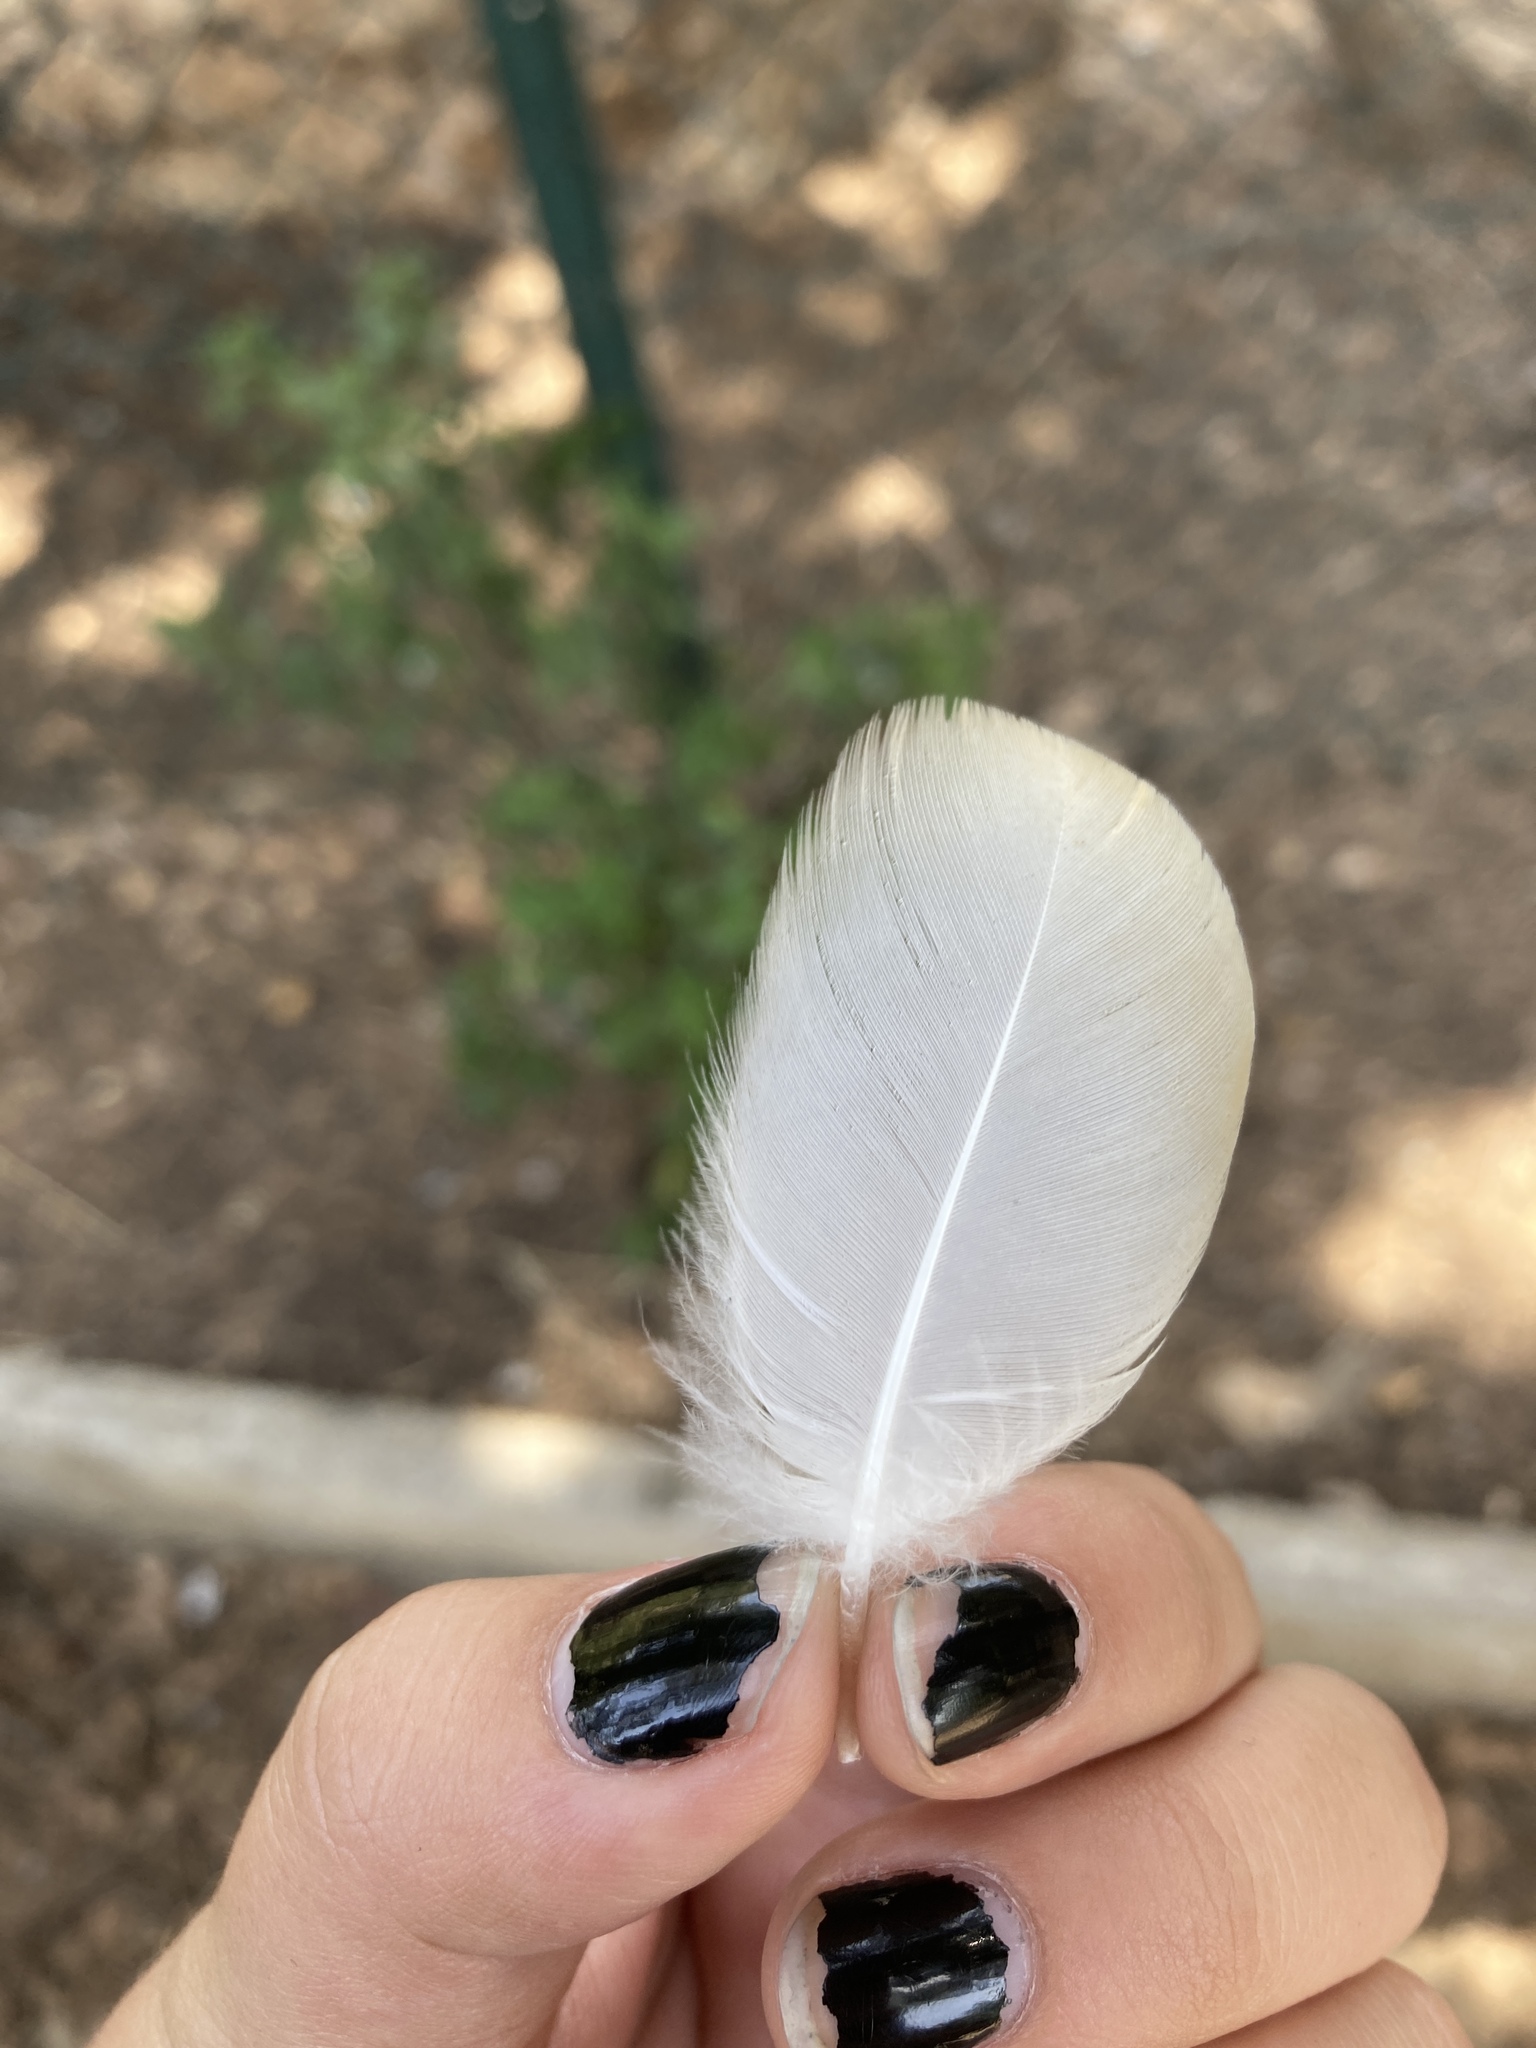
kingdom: Animalia
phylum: Chordata
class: Aves
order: Anseriformes
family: Anatidae
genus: Tadorna
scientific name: Tadorna ferruginea
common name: Ruddy shelduck
